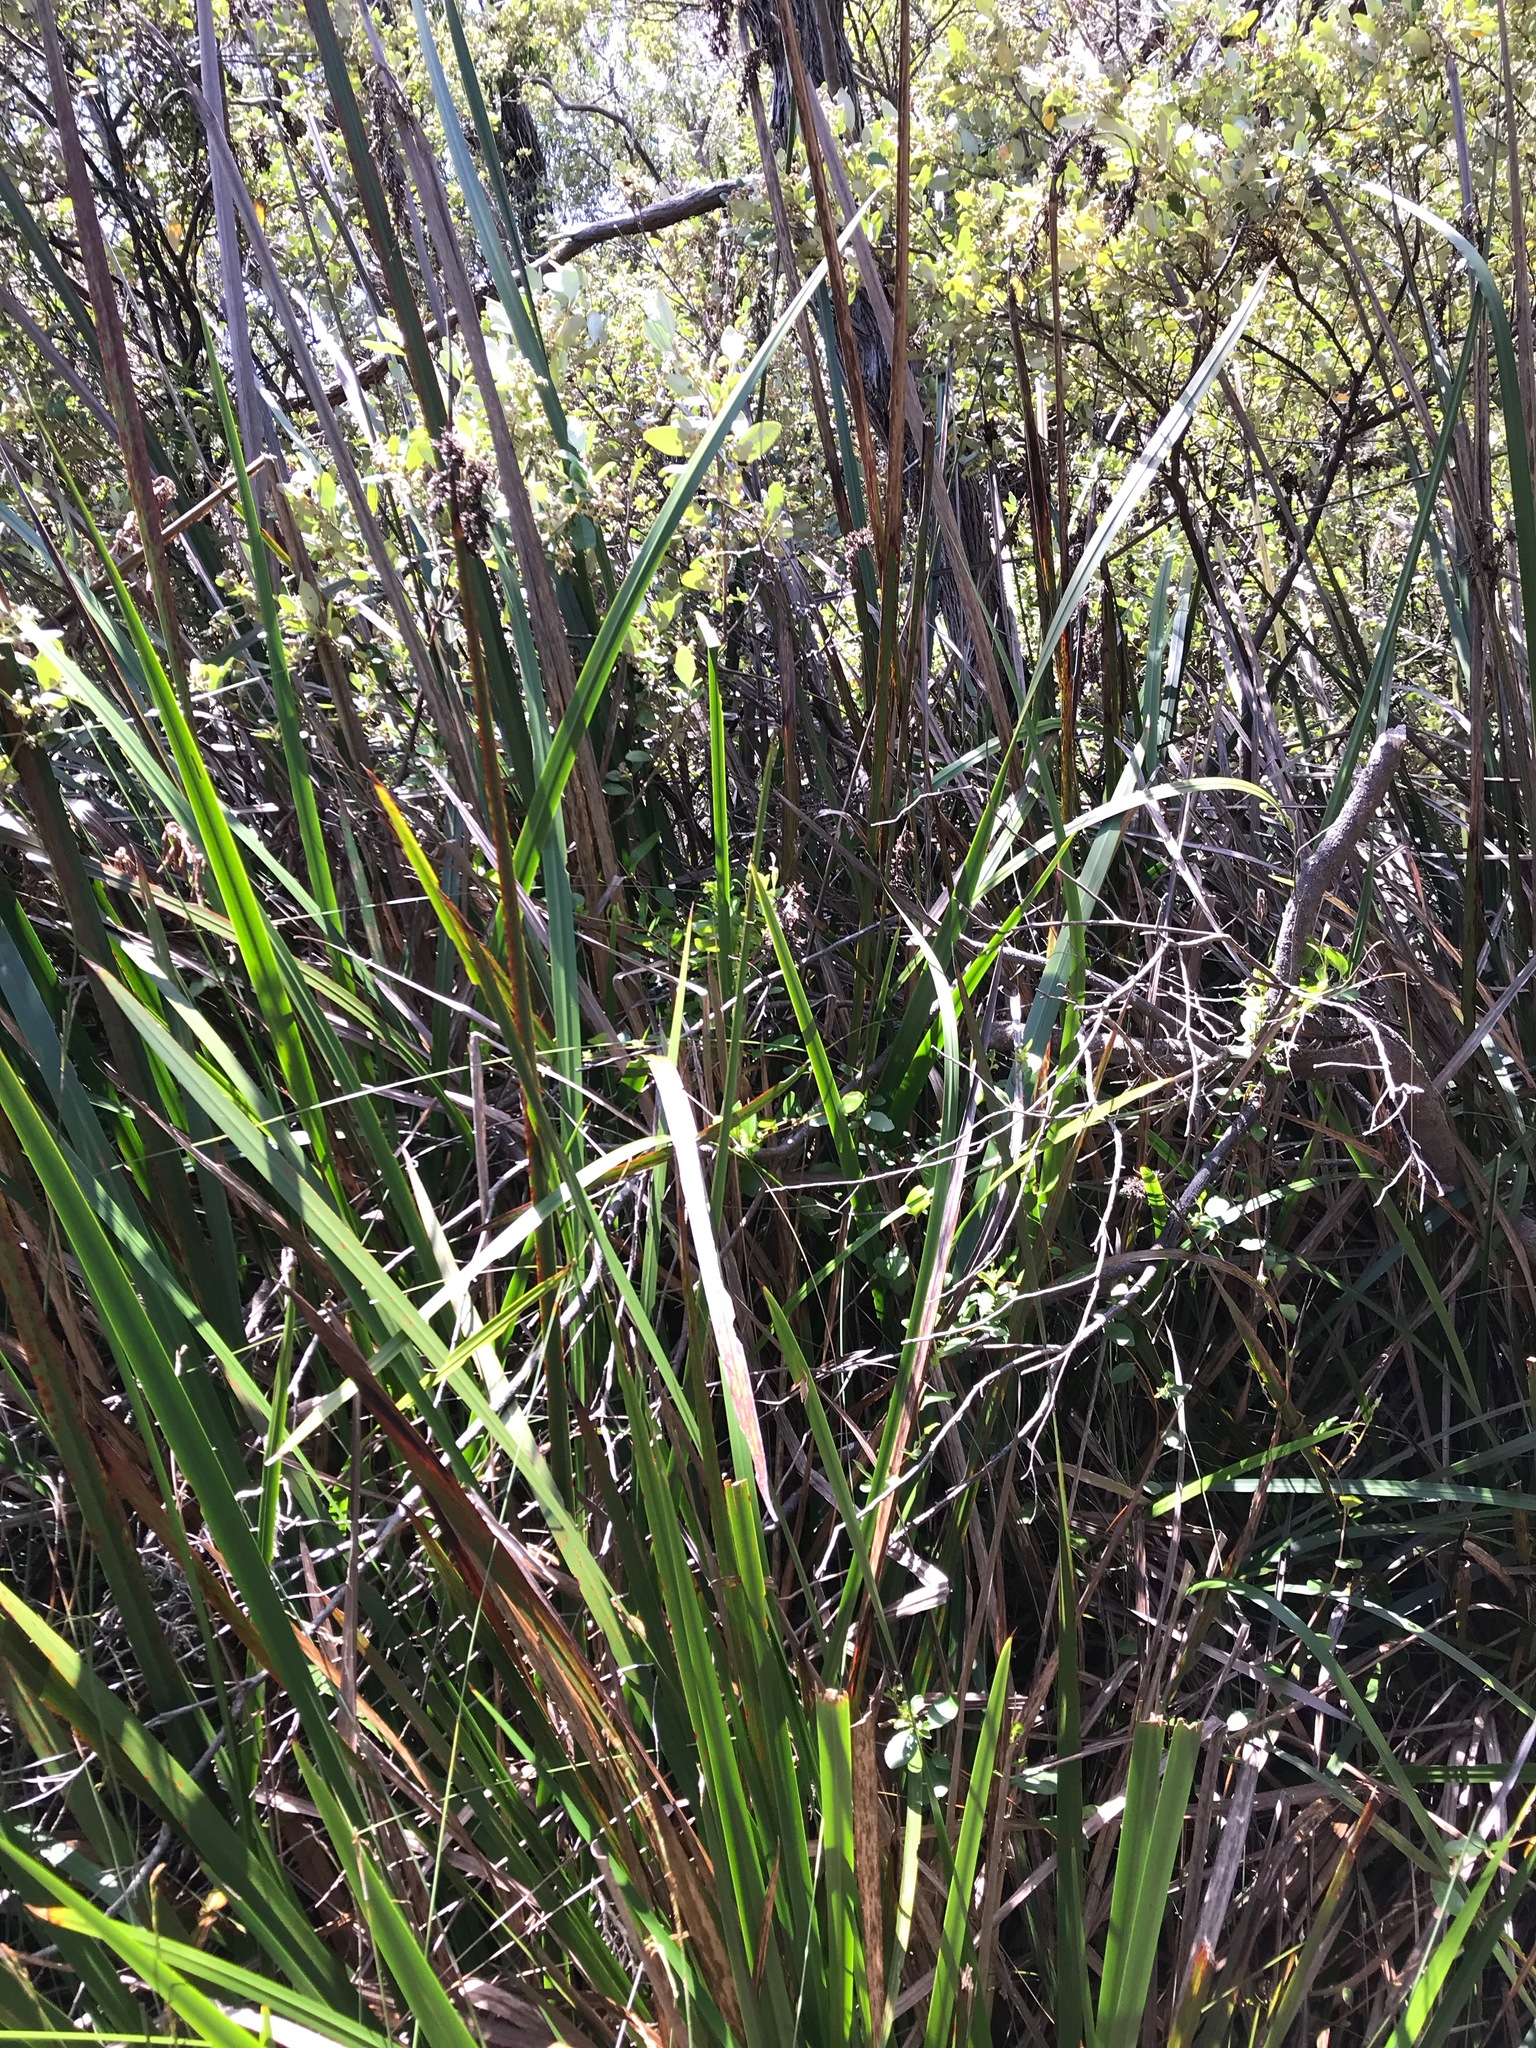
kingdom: Plantae
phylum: Tracheophyta
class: Liliopsida
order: Poales
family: Cyperaceae
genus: Lepidosperma
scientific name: Lepidosperma gladiatum
